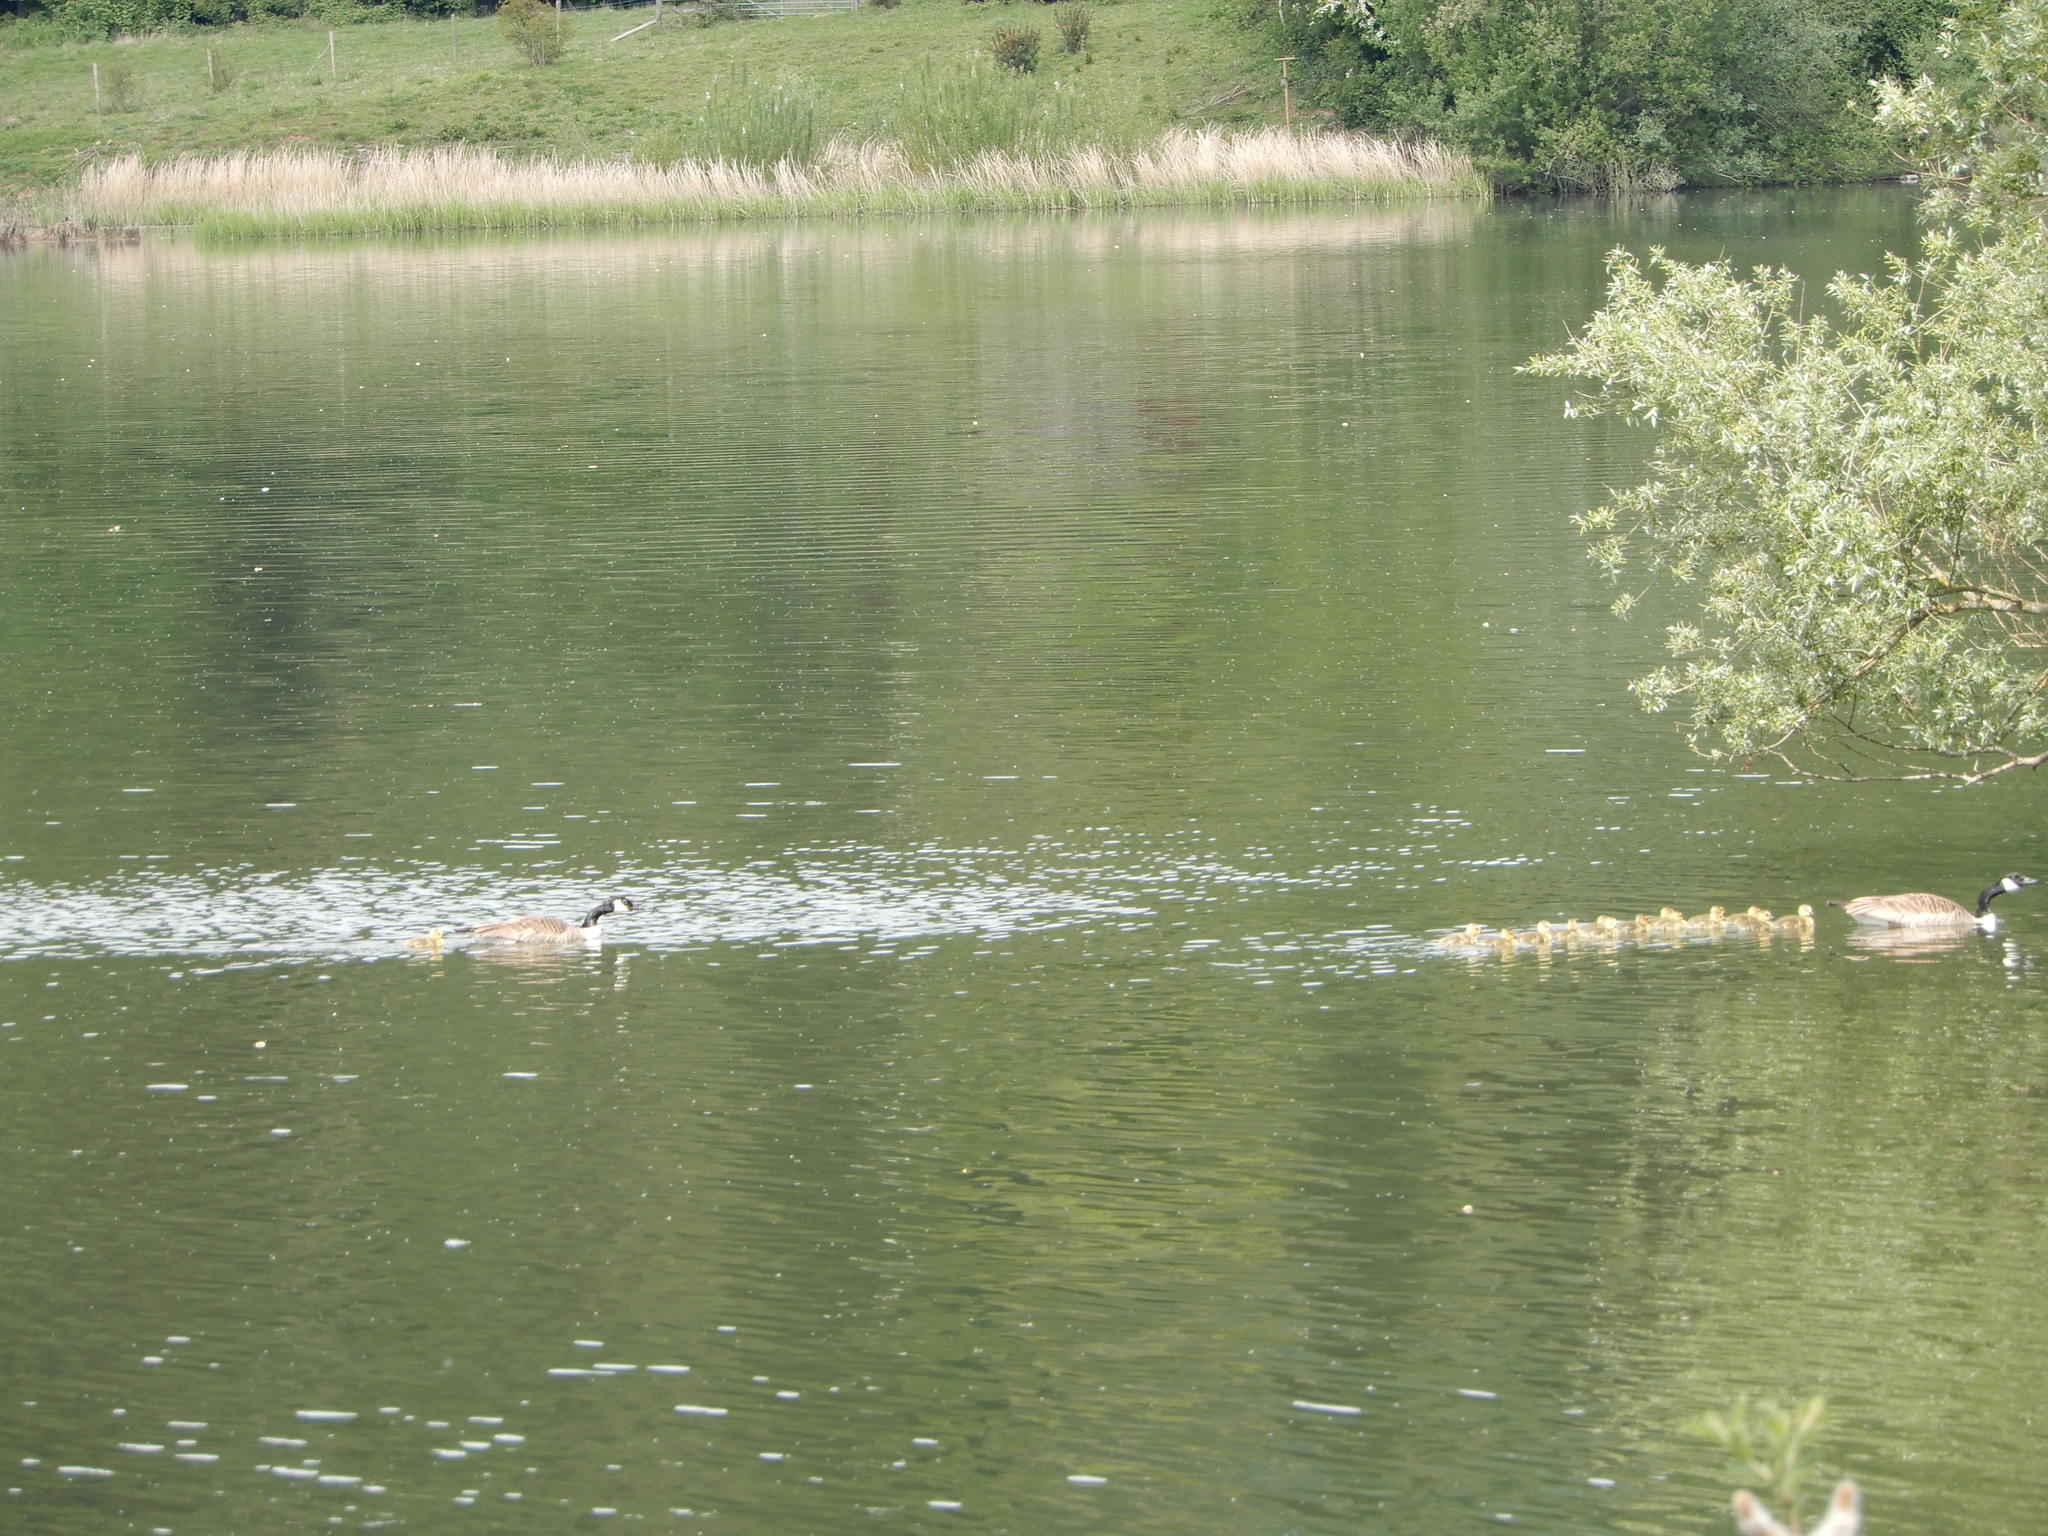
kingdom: Animalia
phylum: Chordata
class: Aves
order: Anseriformes
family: Anatidae
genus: Branta
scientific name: Branta canadensis
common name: Canada goose
